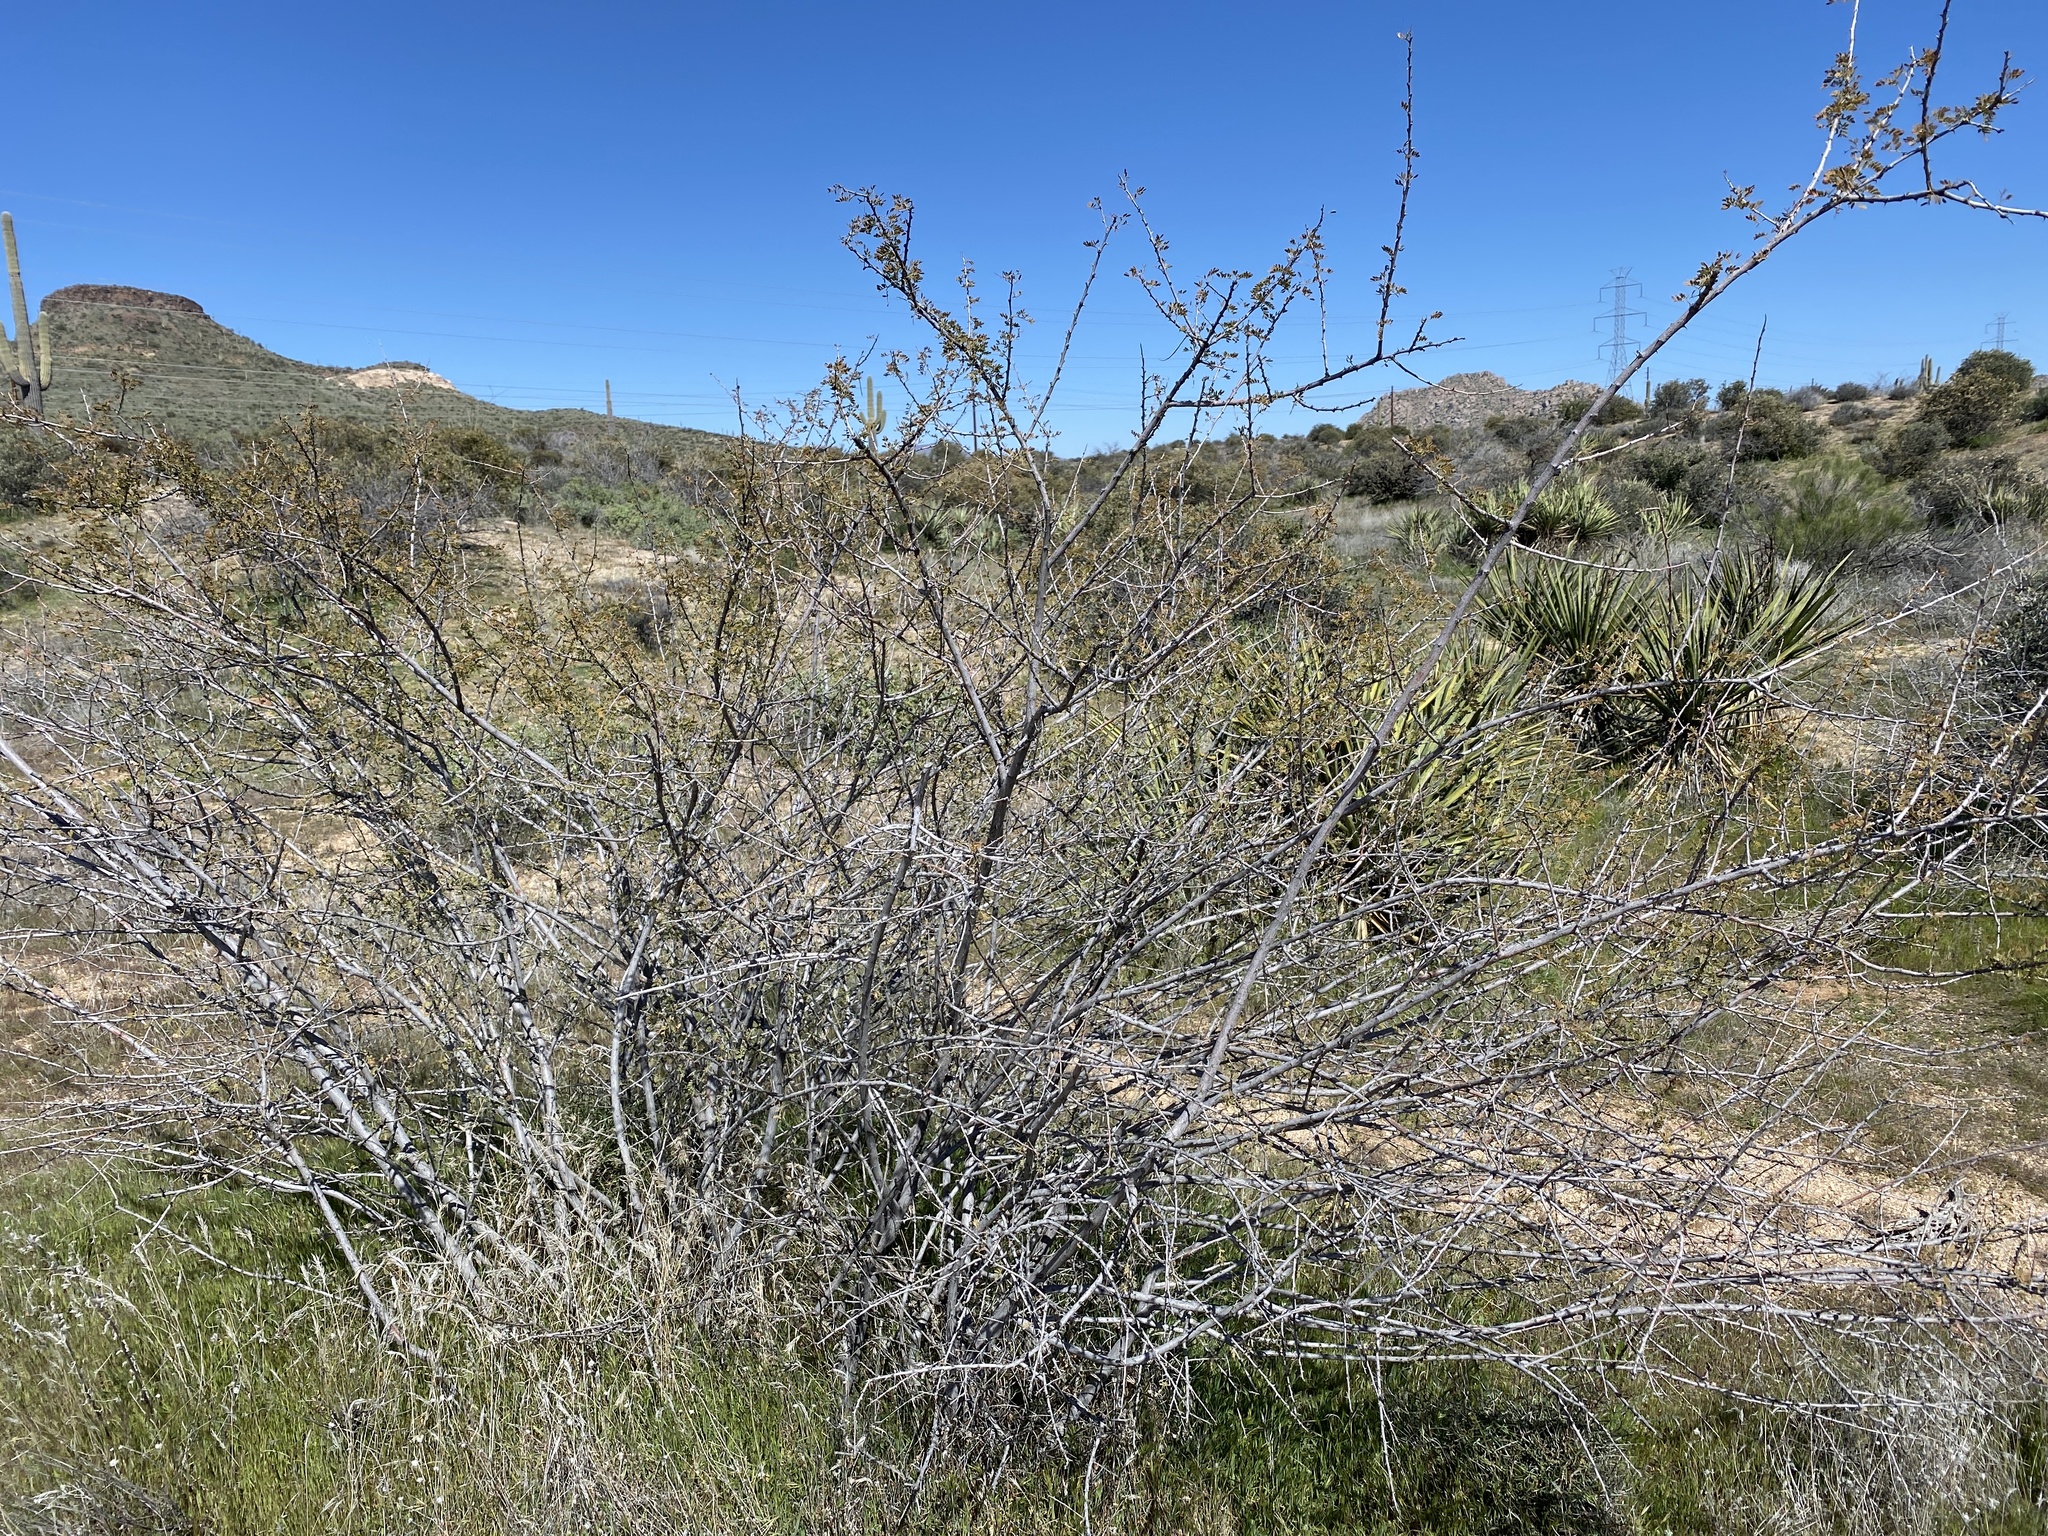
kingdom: Plantae
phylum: Tracheophyta
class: Magnoliopsida
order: Fabales
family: Fabaceae
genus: Senegalia
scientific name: Senegalia greggii
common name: Texas-mimosa
